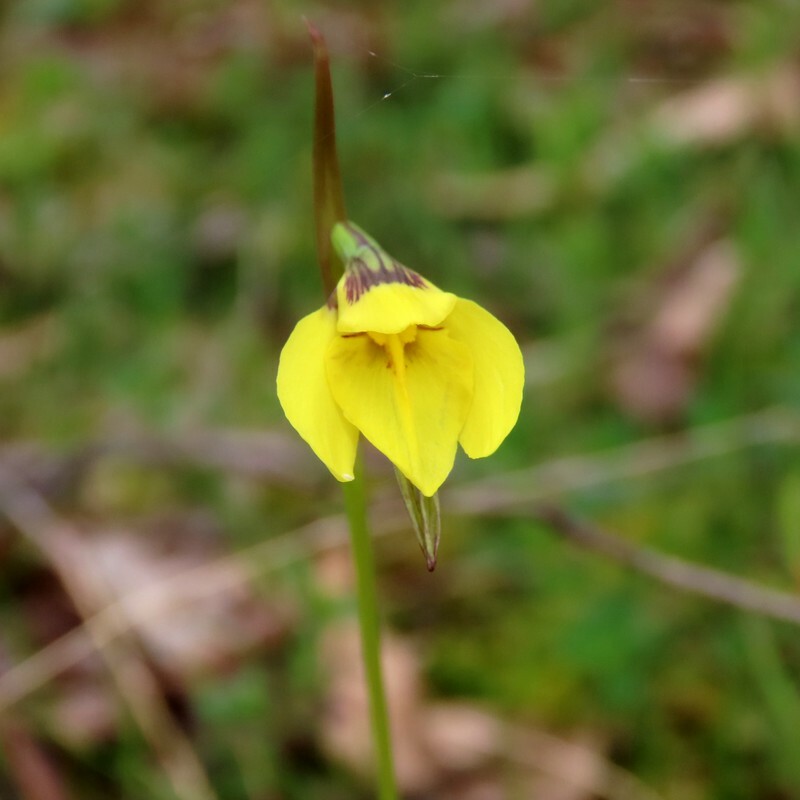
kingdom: Plantae
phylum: Tracheophyta
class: Liliopsida
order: Asparagales
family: Orchidaceae
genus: Diuris
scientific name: Diuris chryseopsis
